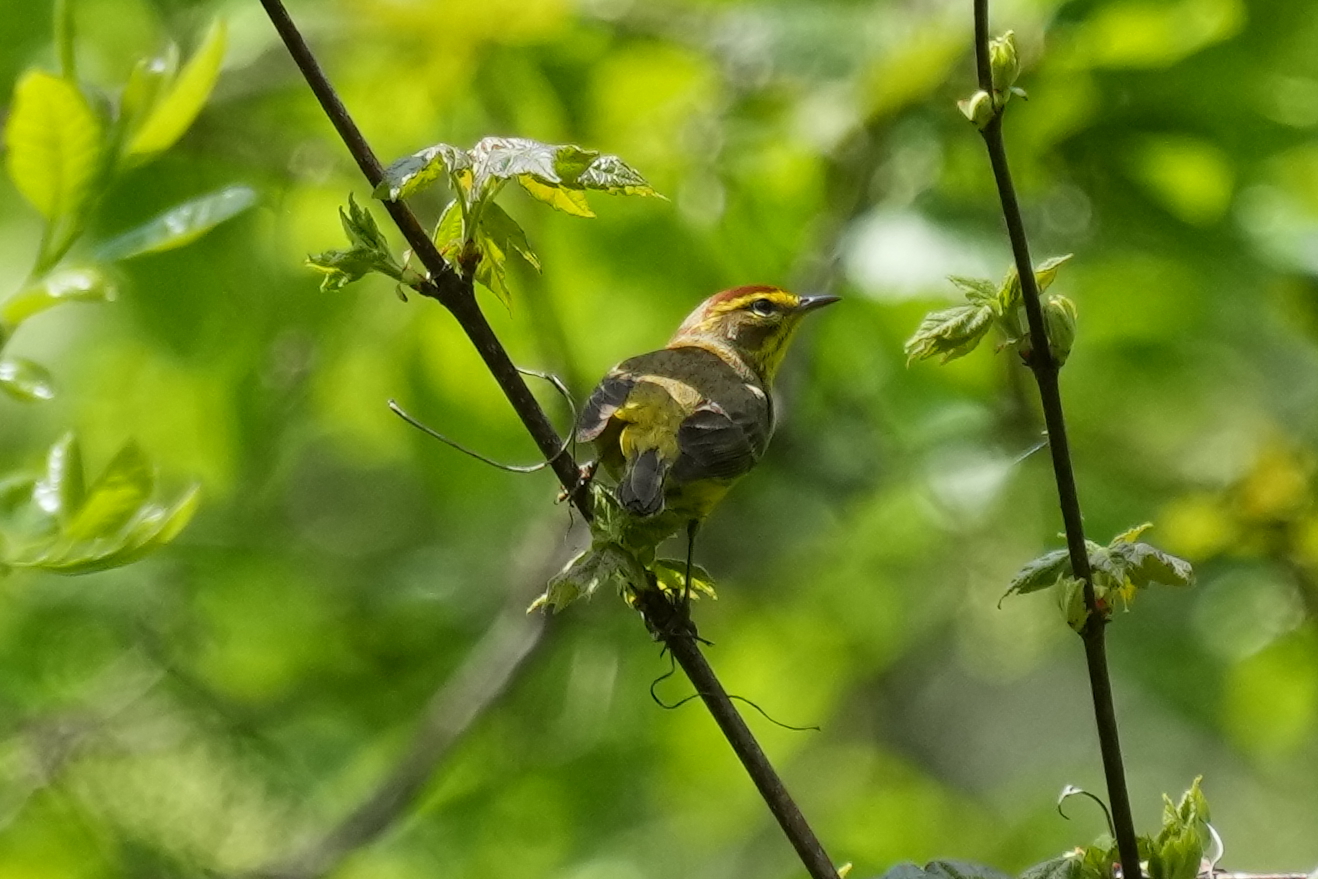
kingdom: Animalia
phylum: Chordata
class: Aves
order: Passeriformes
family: Parulidae
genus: Setophaga
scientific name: Setophaga palmarum
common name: Palm warbler
